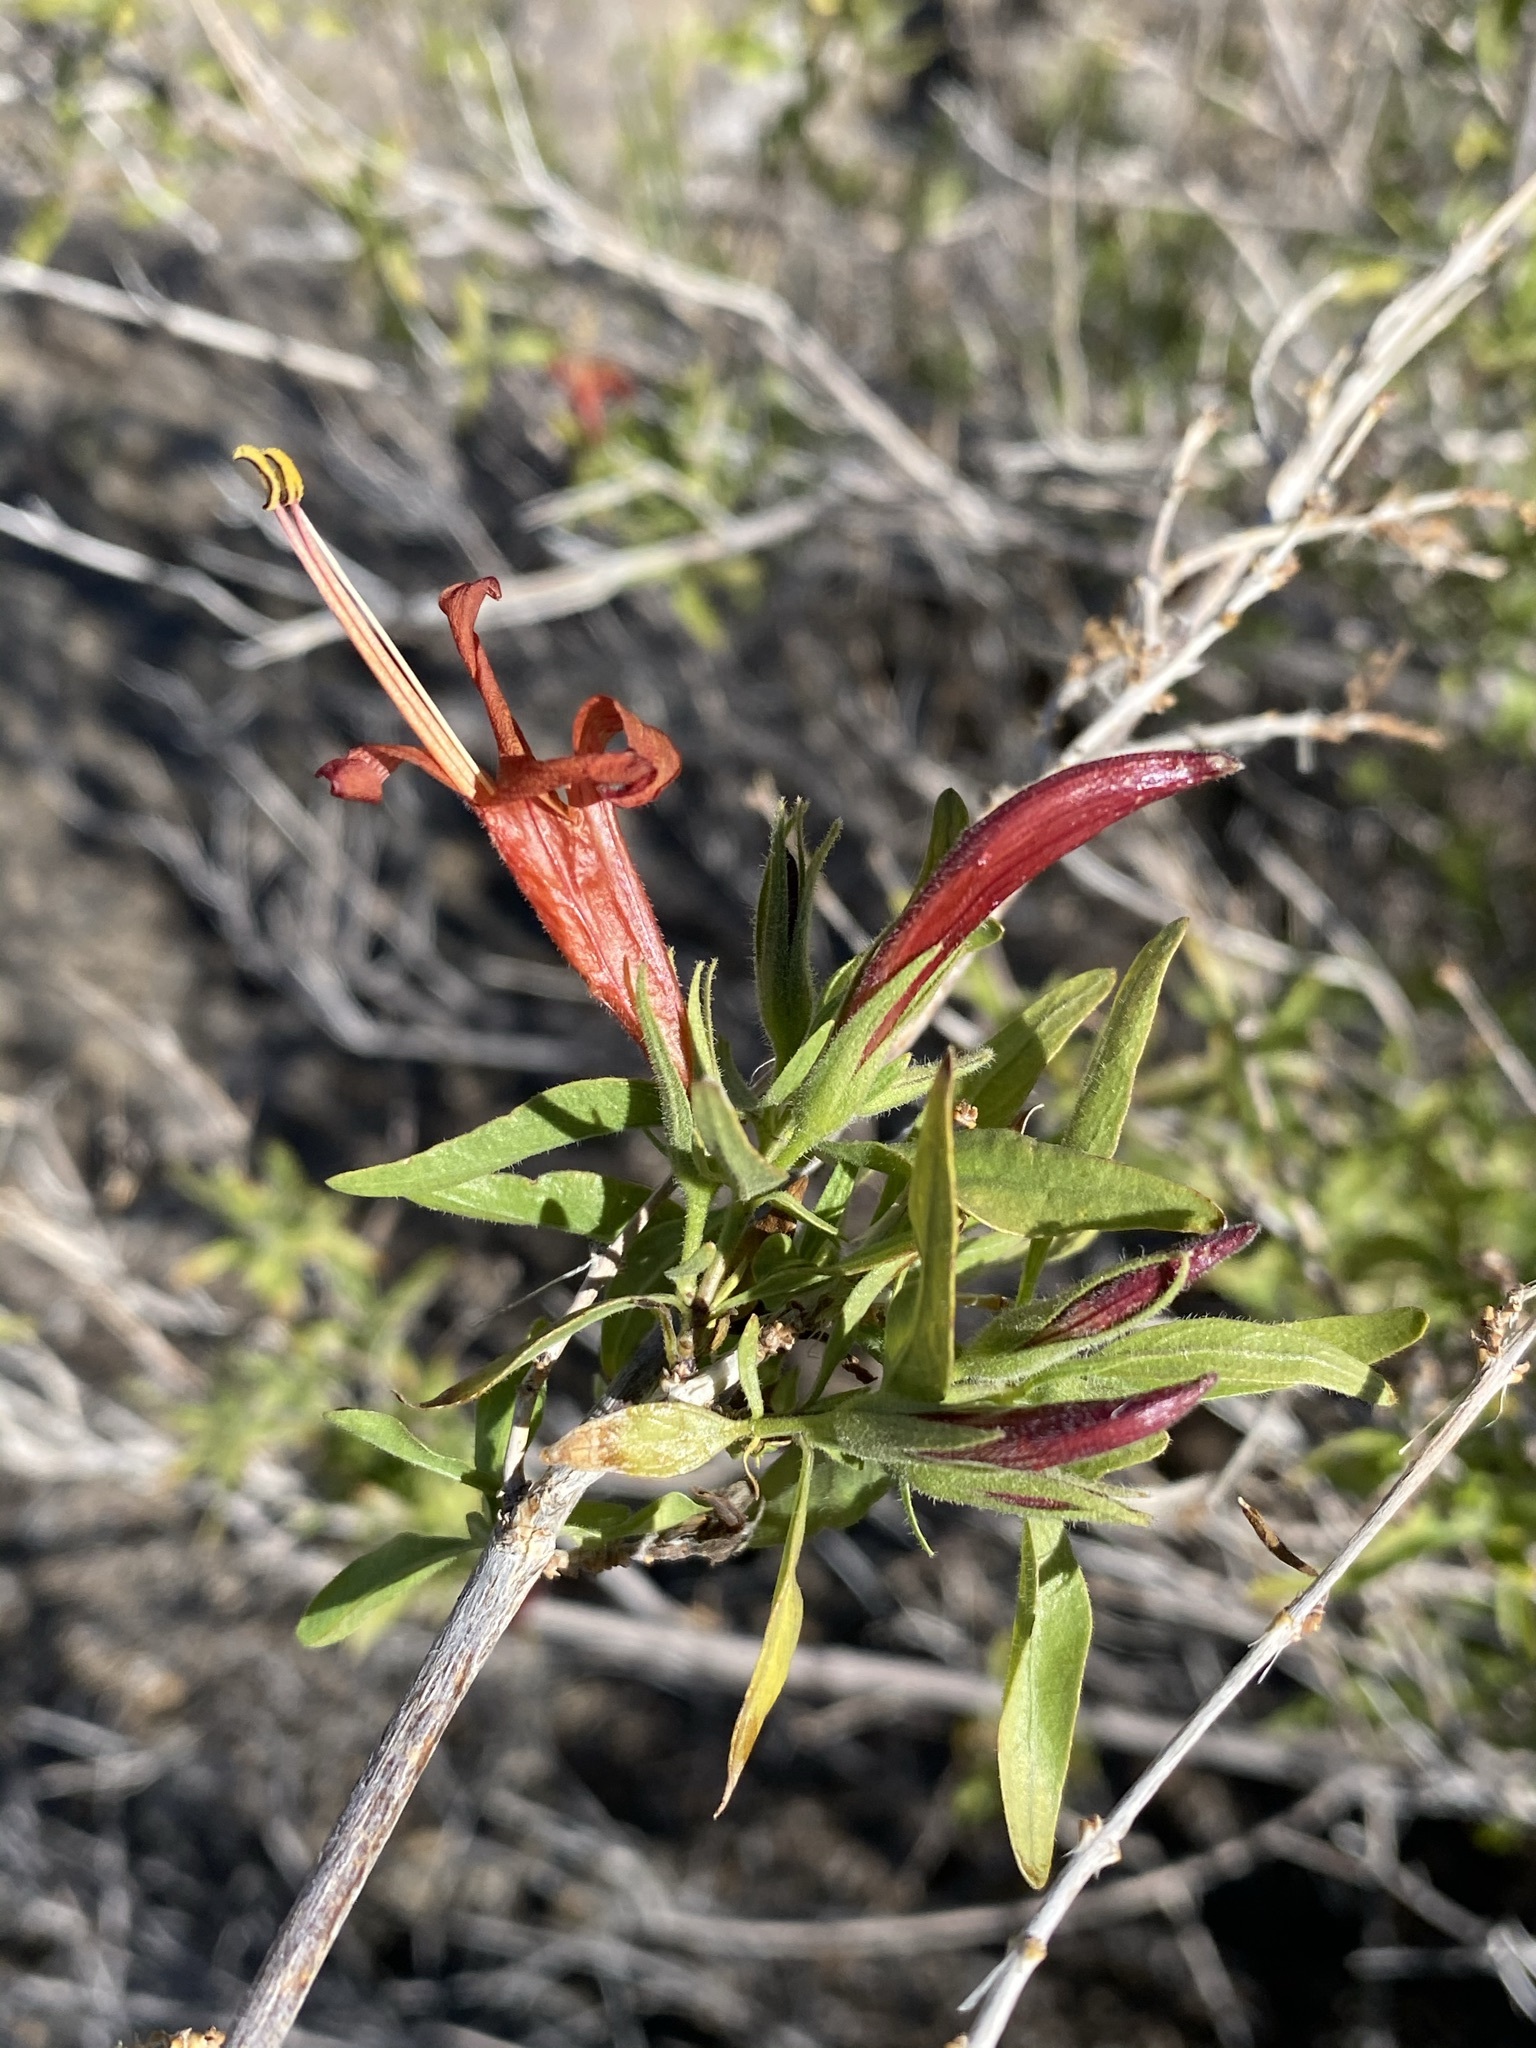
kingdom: Plantae
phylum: Tracheophyta
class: Magnoliopsida
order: Lamiales
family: Acanthaceae
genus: Anisacanthus
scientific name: Anisacanthus thurberi
